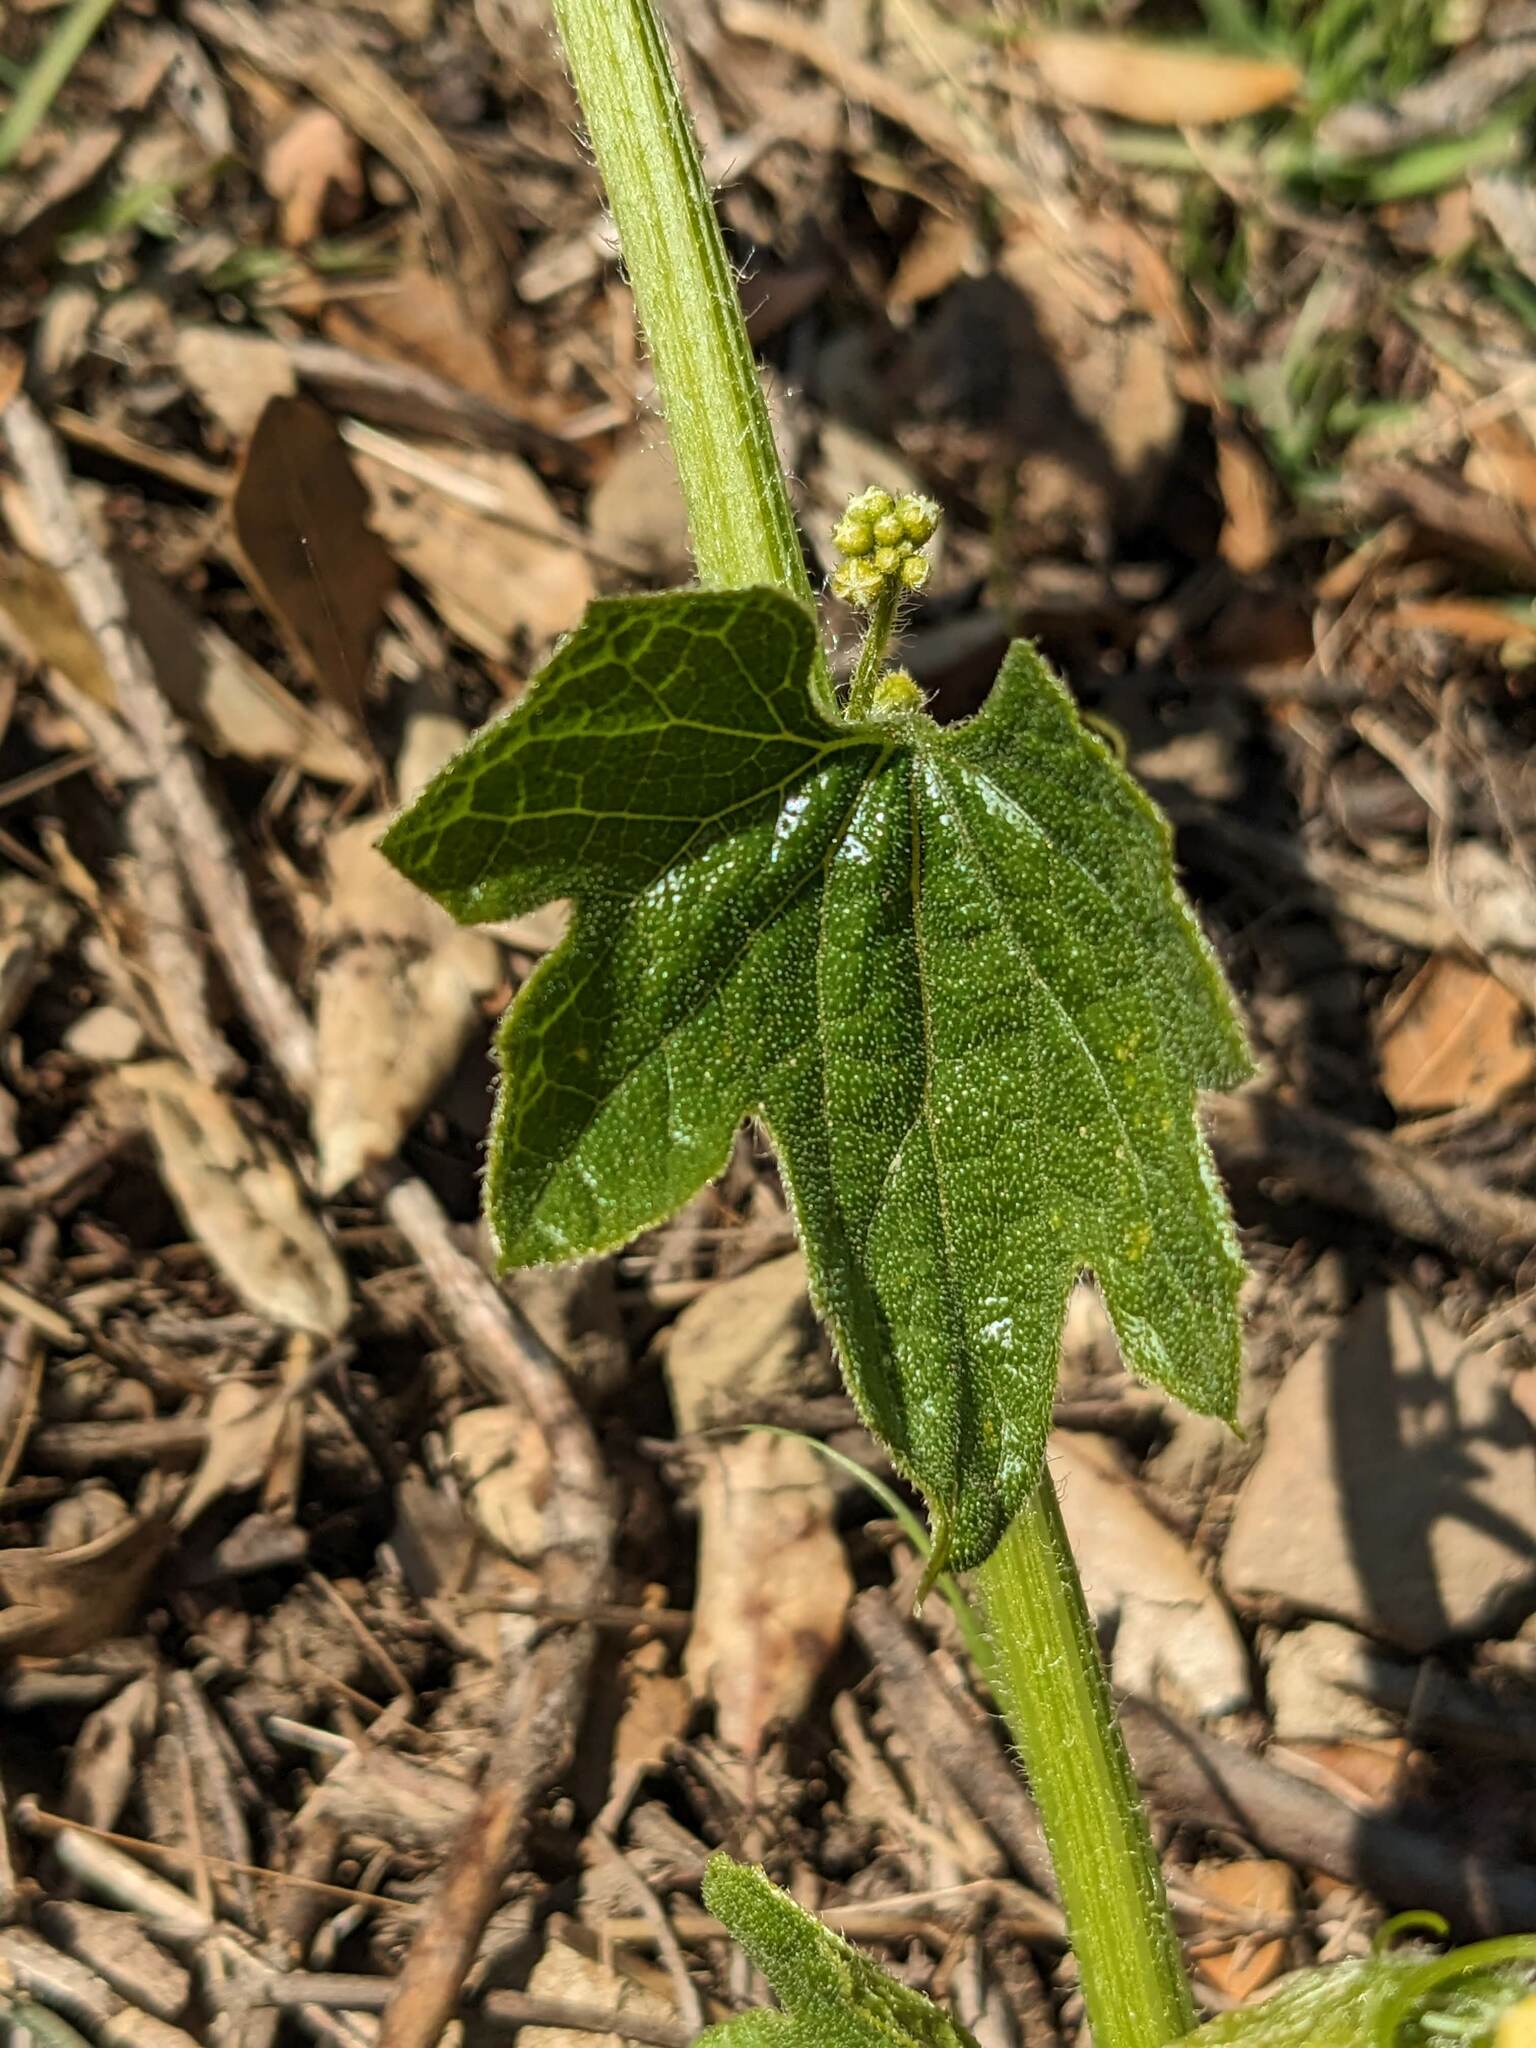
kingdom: Plantae
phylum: Tracheophyta
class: Magnoliopsida
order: Cucurbitales
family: Cucurbitaceae
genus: Marah
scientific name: Marah oregana
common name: Coastal manroot
